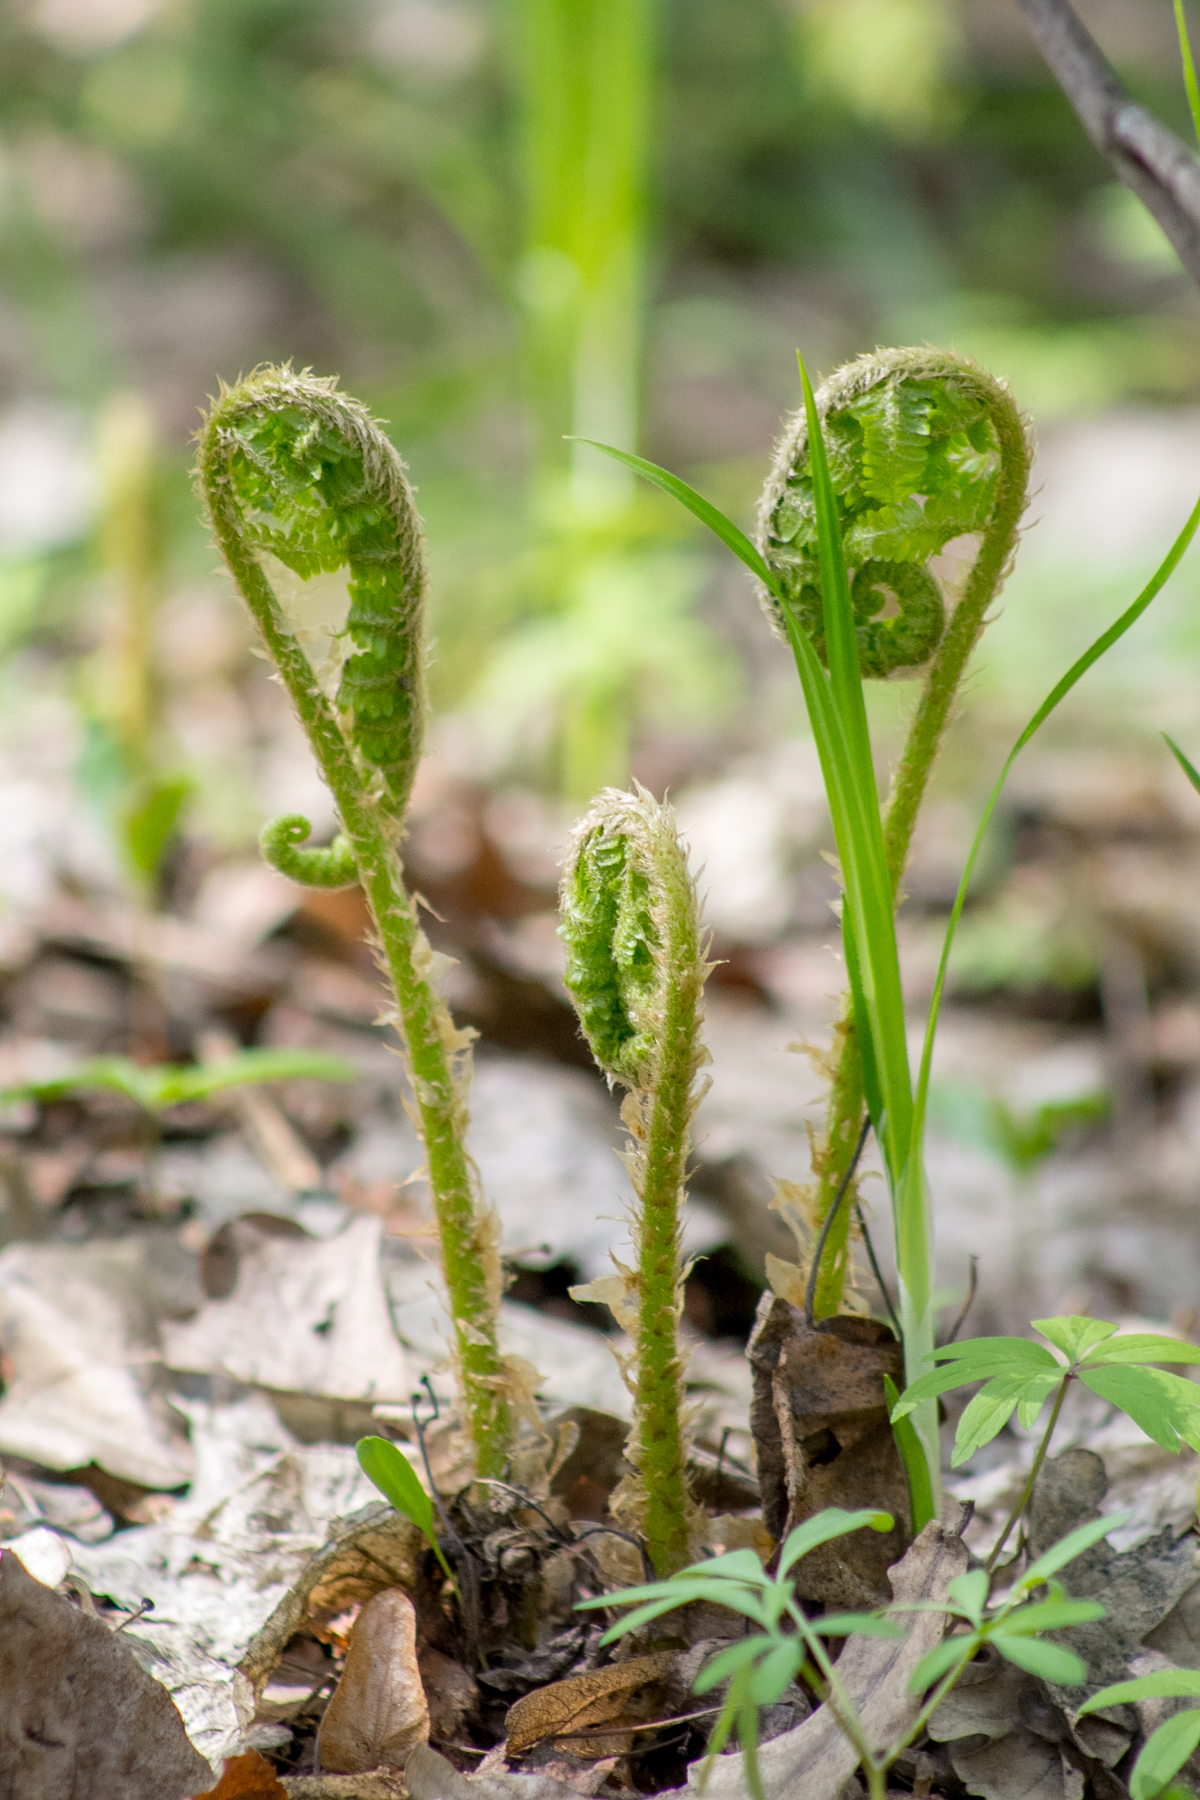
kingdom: Plantae
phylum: Tracheophyta
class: Polypodiopsida
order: Polypodiales
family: Dryopteridaceae
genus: Dryopteris
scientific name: Dryopteris filix-mas
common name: Male fern
